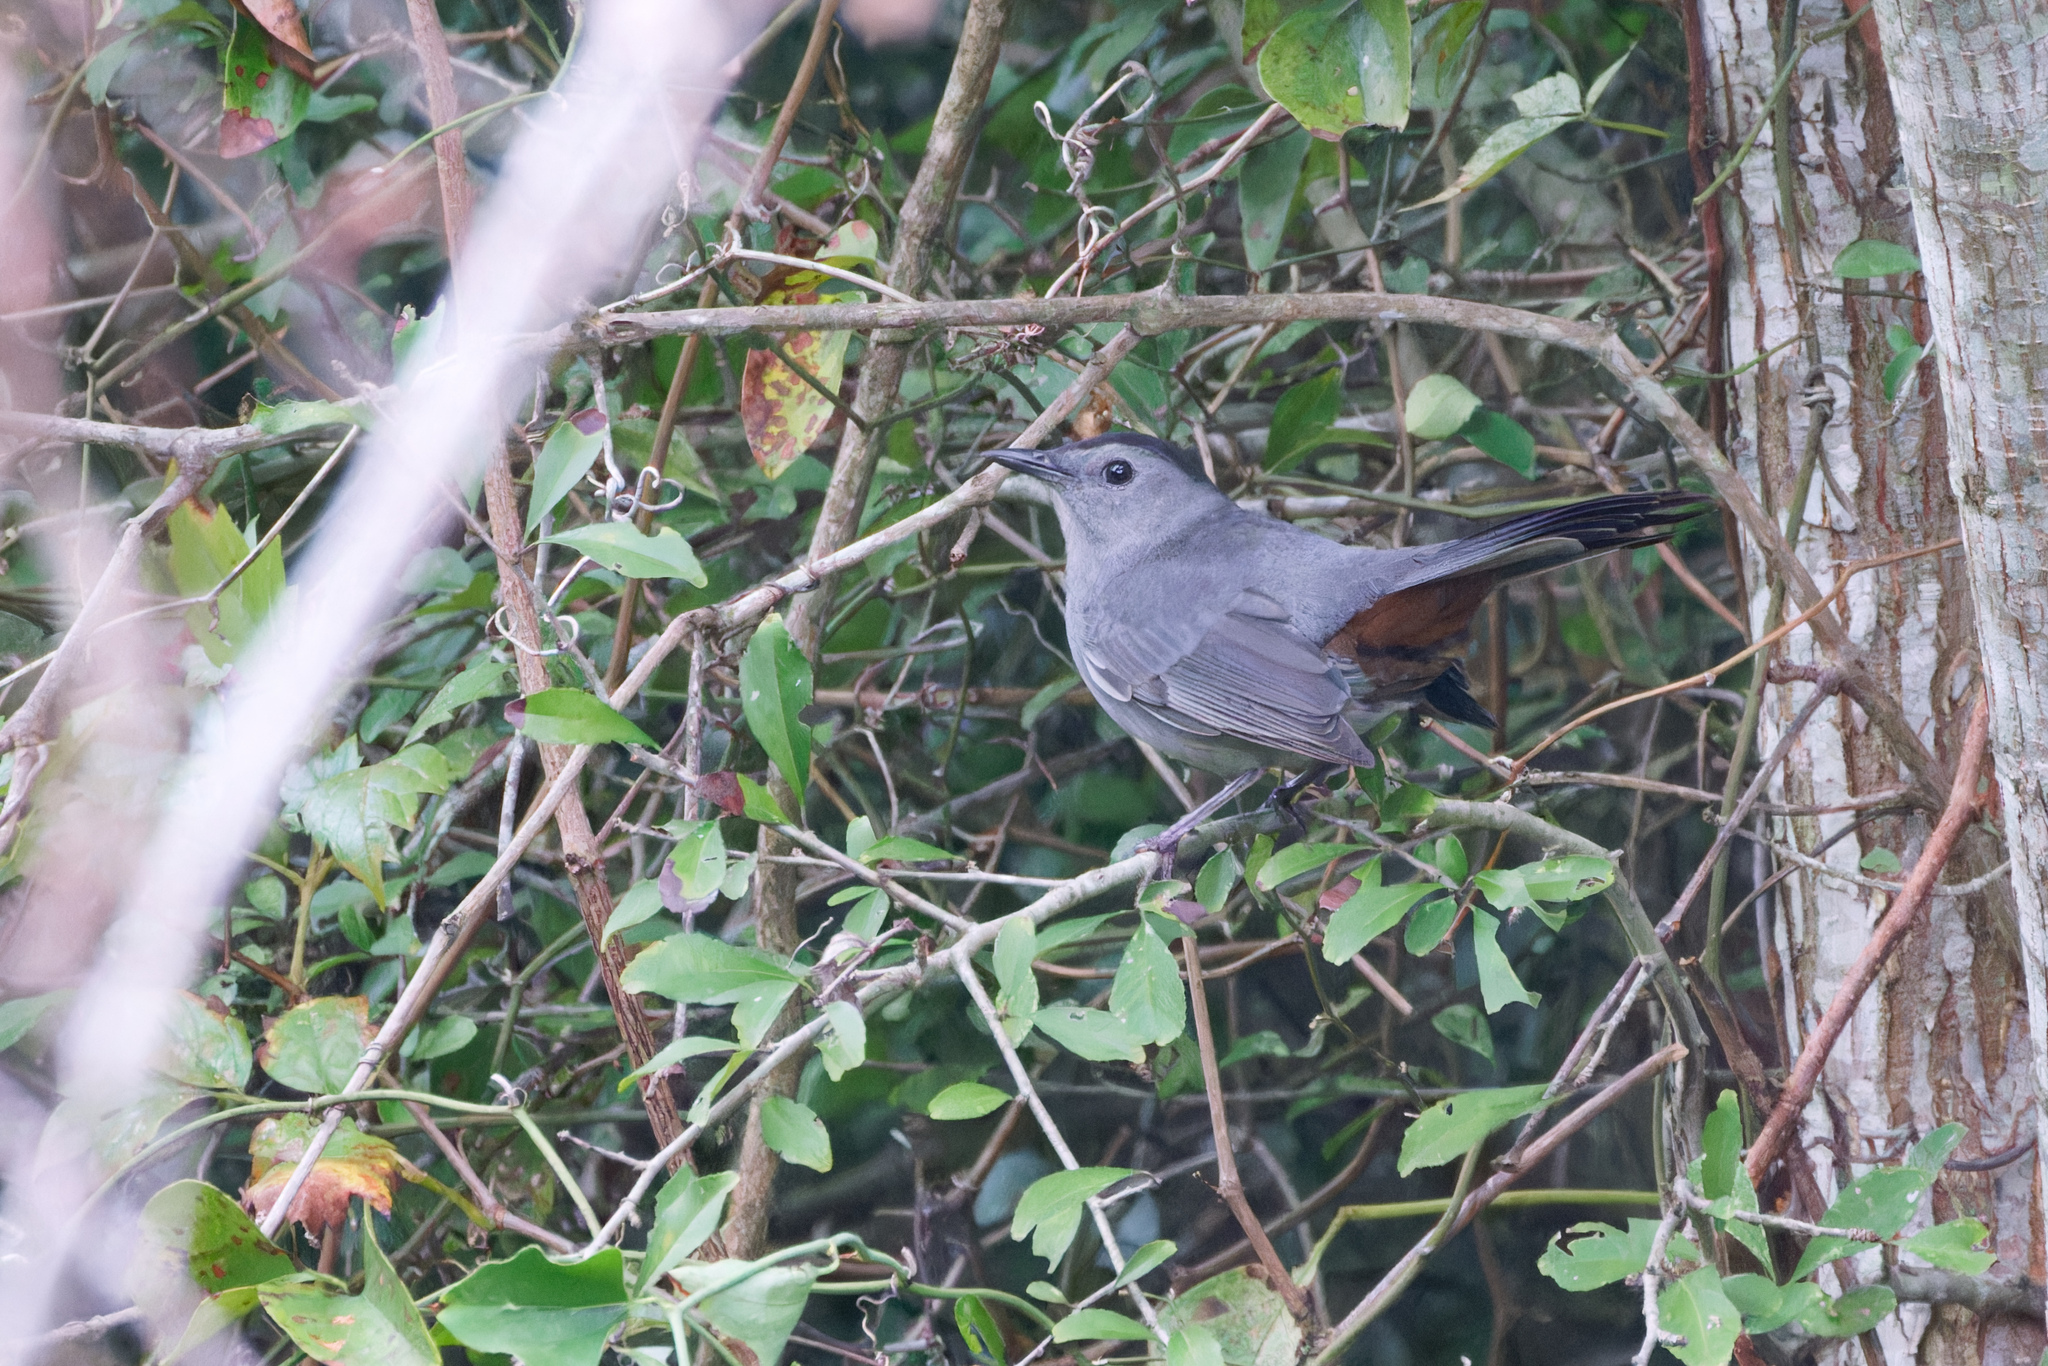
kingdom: Animalia
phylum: Chordata
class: Aves
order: Passeriformes
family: Mimidae
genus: Dumetella
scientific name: Dumetella carolinensis
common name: Gray catbird
